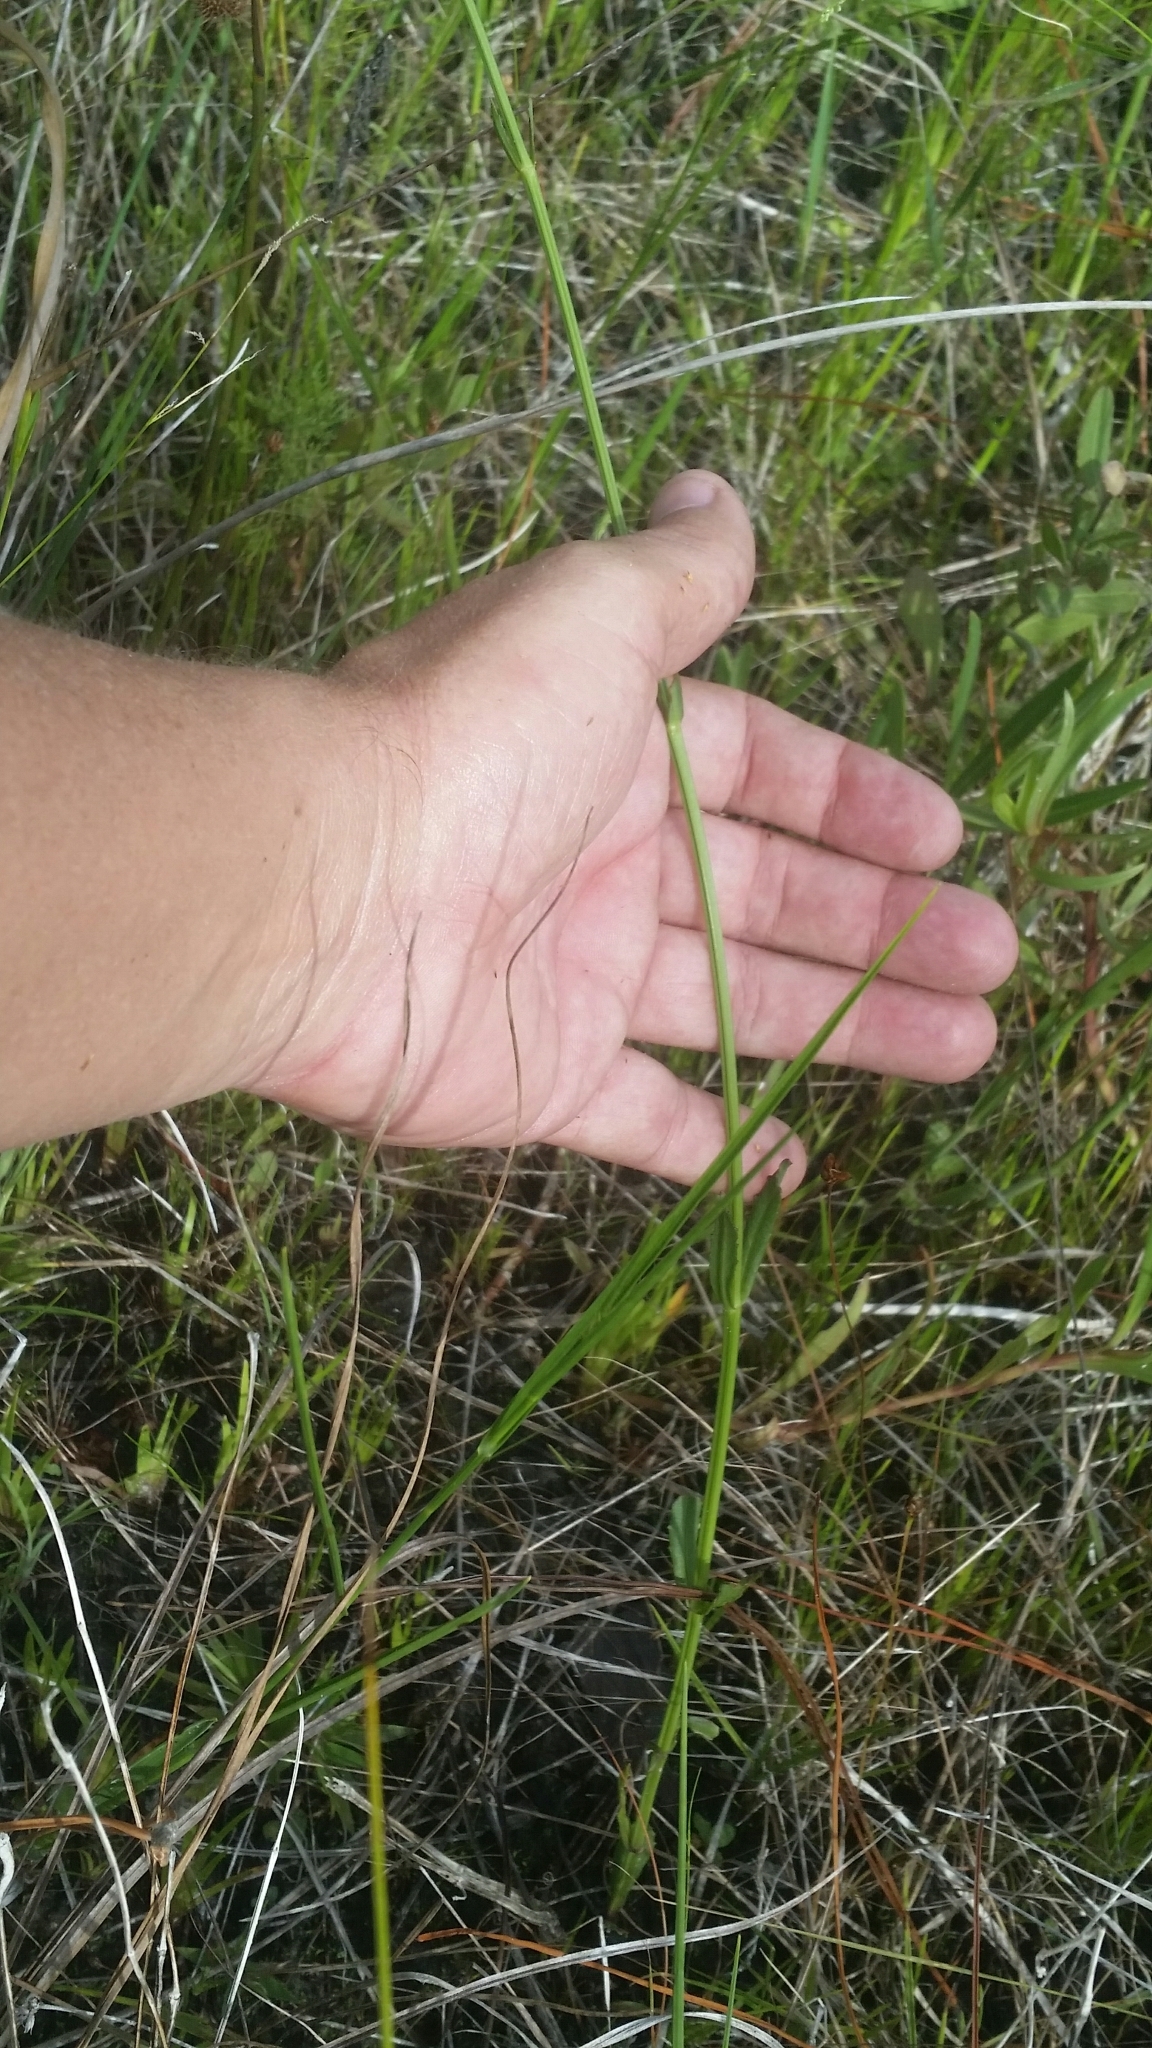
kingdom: Plantae
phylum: Tracheophyta
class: Magnoliopsida
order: Lamiales
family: Lamiaceae
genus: Physostegia
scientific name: Physostegia purpurea
